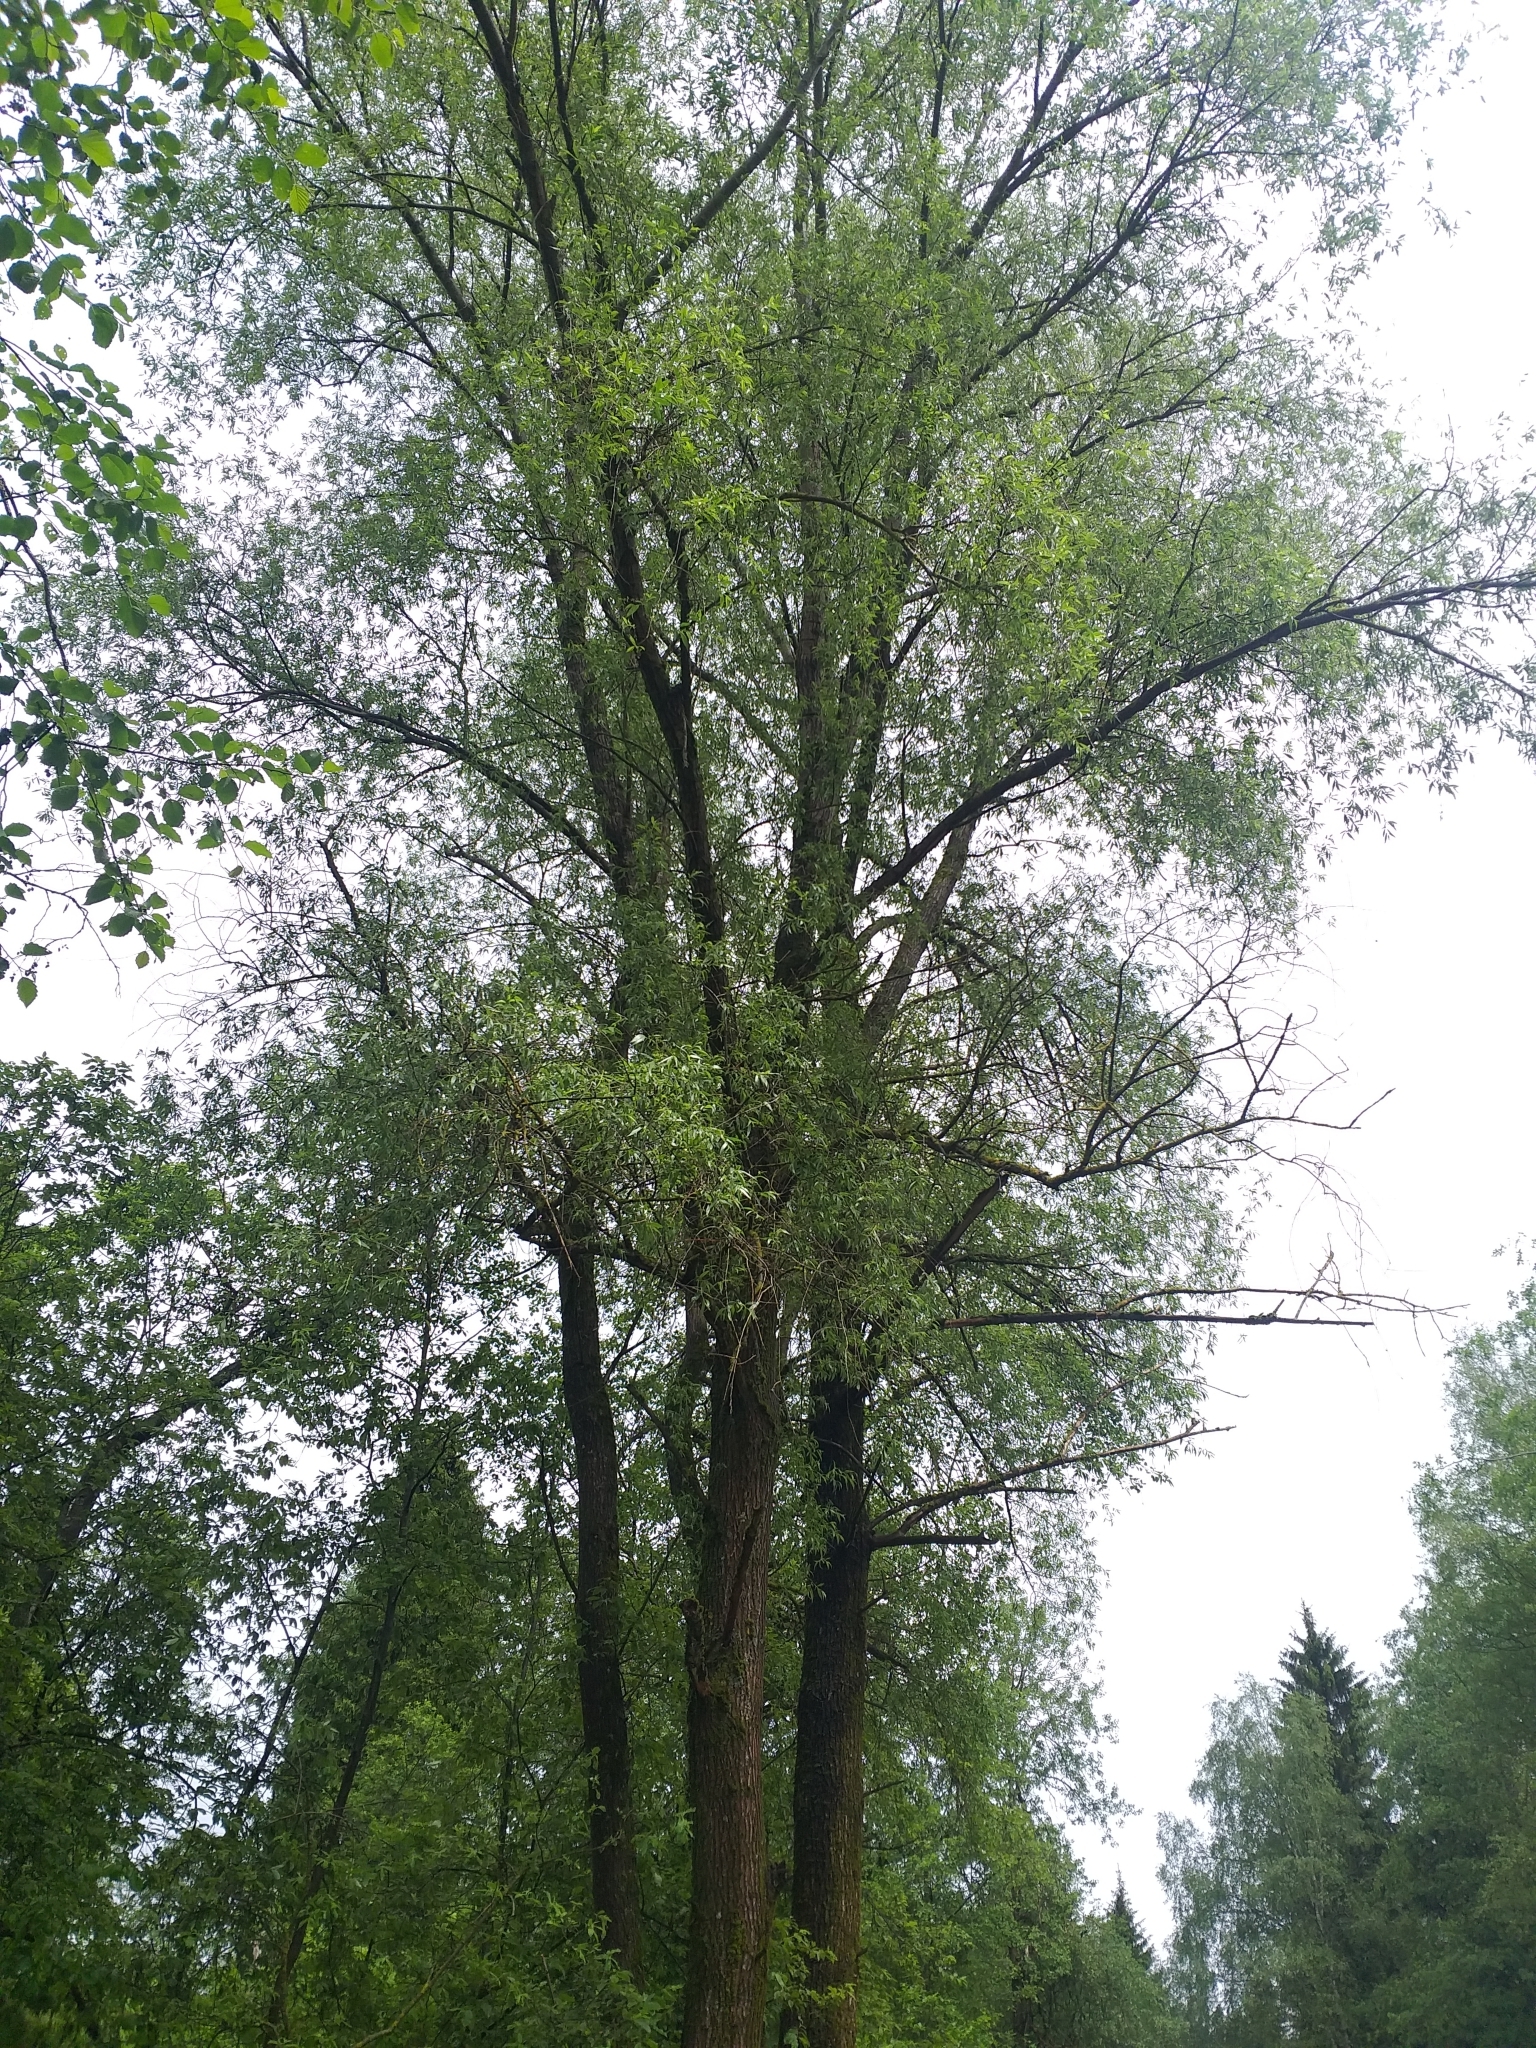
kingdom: Plantae
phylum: Tracheophyta
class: Magnoliopsida
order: Malpighiales
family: Salicaceae
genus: Salix
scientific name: Salix alba
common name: White willow
